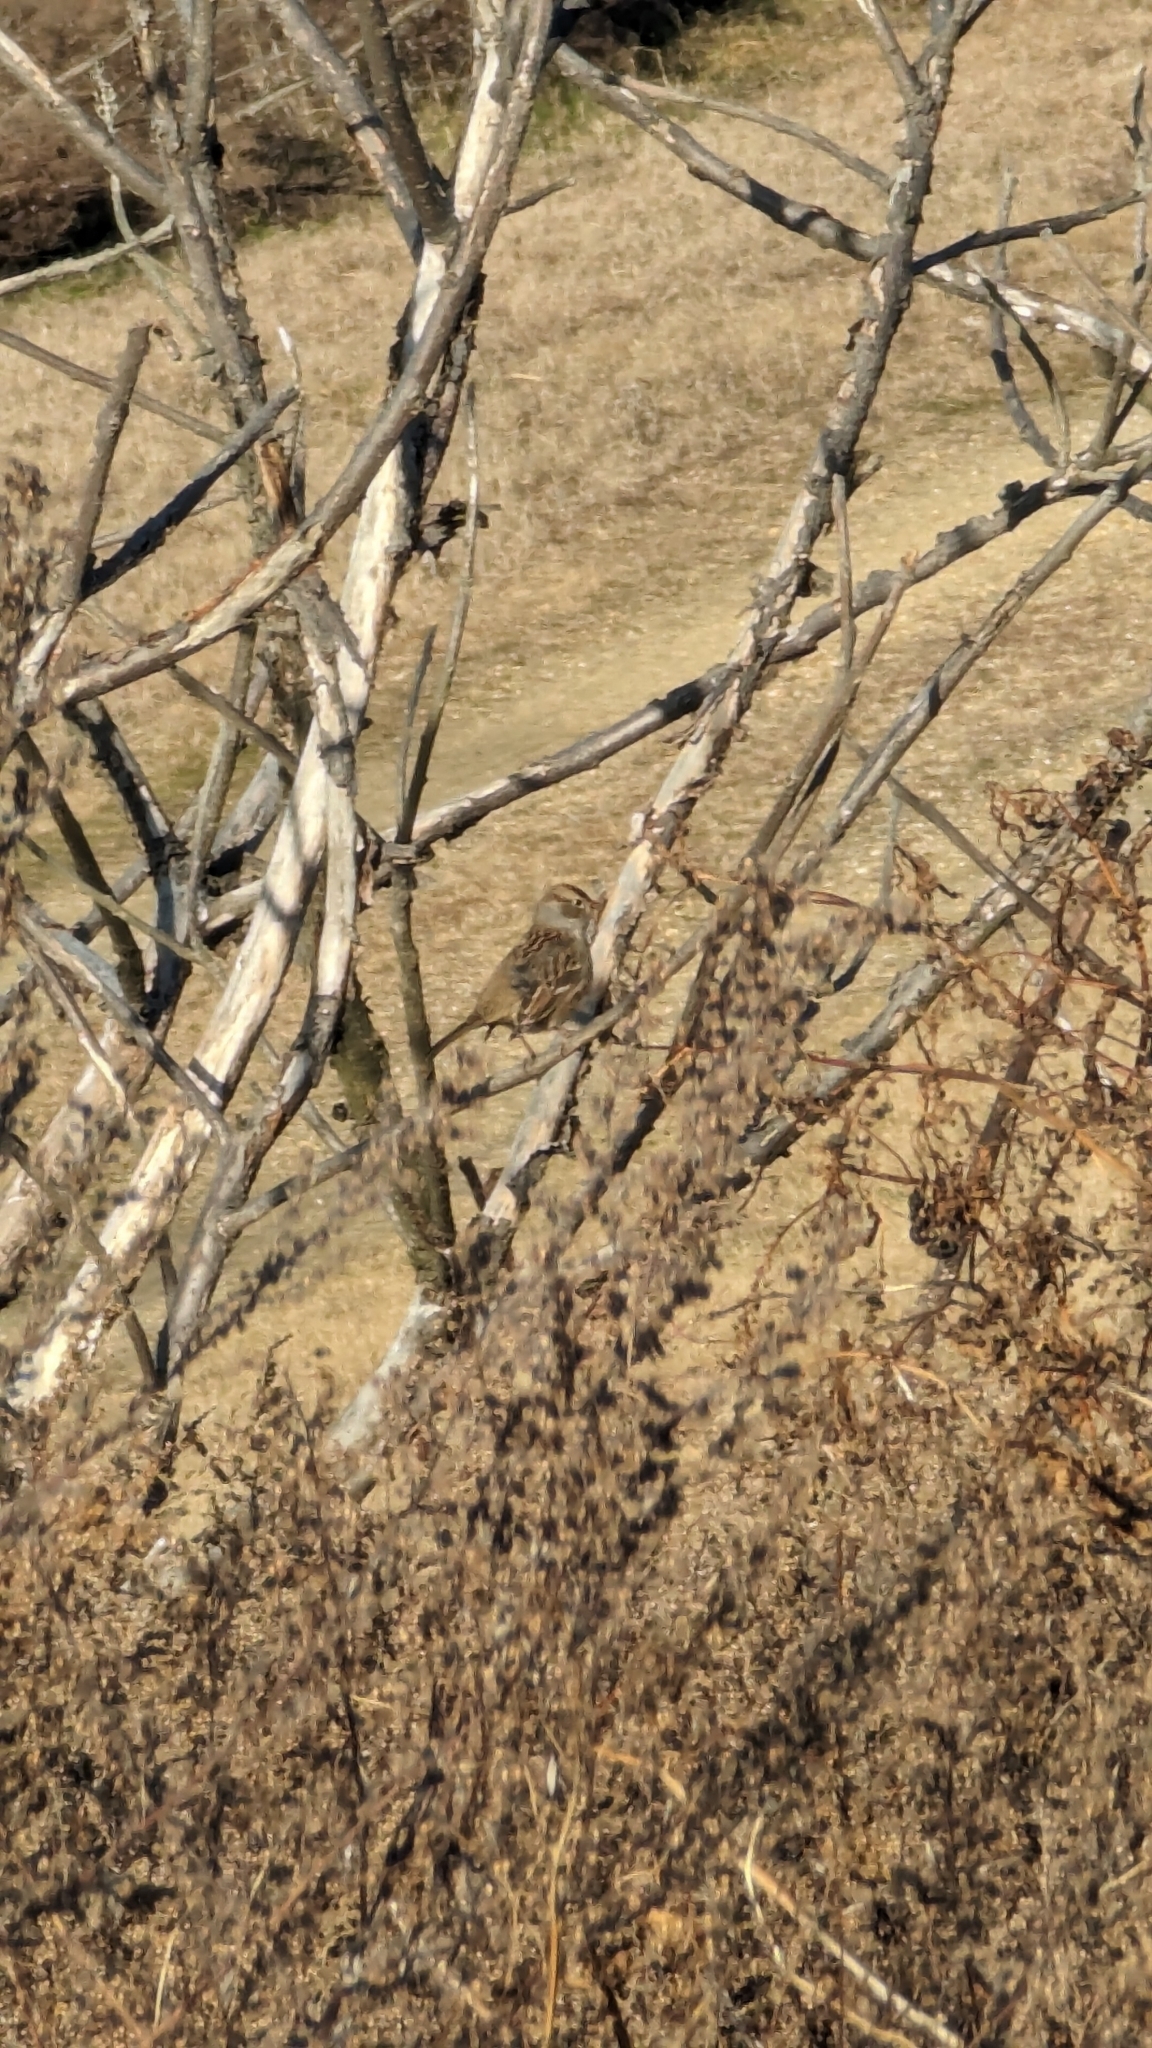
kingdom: Animalia
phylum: Chordata
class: Aves
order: Passeriformes
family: Passerellidae
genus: Zonotrichia
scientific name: Zonotrichia leucophrys
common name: White-crowned sparrow
